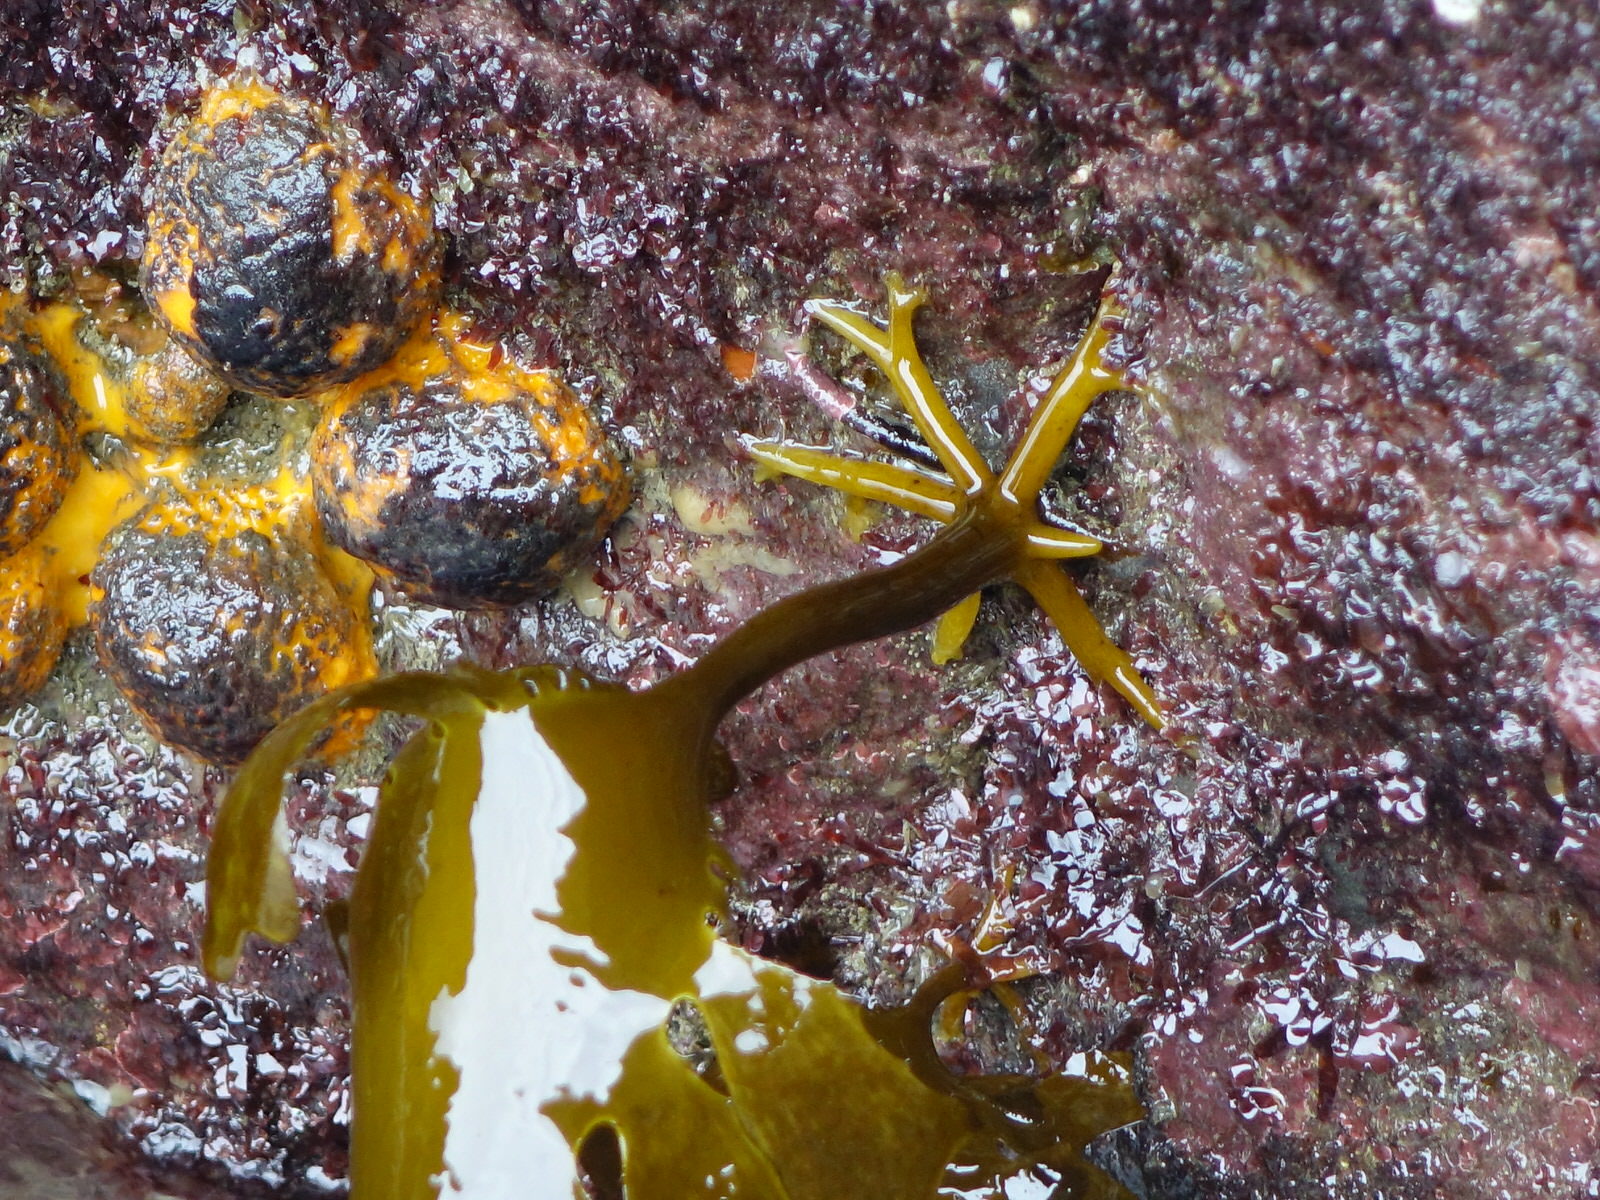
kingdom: Chromista
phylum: Ochrophyta
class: Phaeophyceae
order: Laminariales
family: Lessoniaceae
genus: Ecklonia
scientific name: Ecklonia radiata
